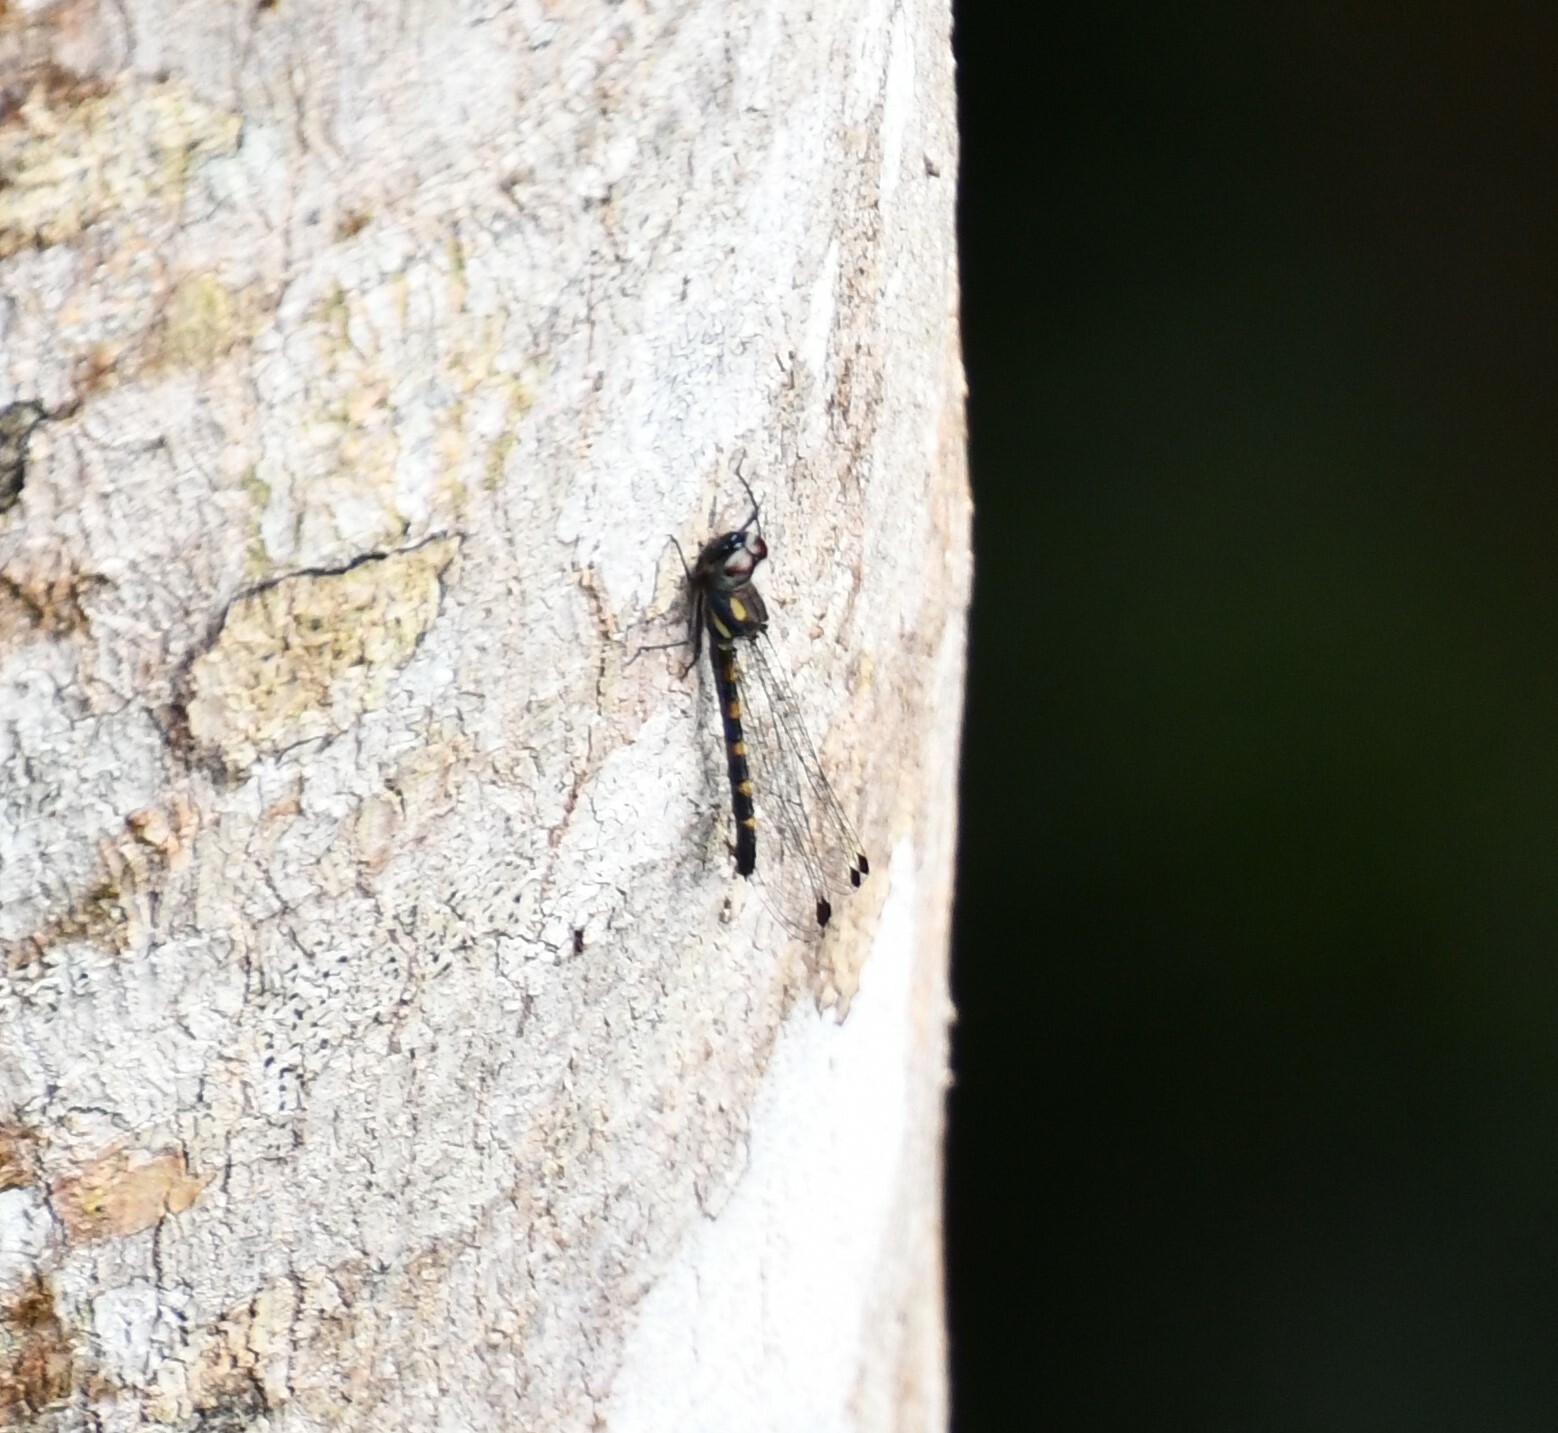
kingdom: Animalia
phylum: Arthropoda
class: Insecta
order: Odonata
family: Corduliidae
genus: Cordulephya
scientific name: Cordulephya bidens
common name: Tropical shutwing
